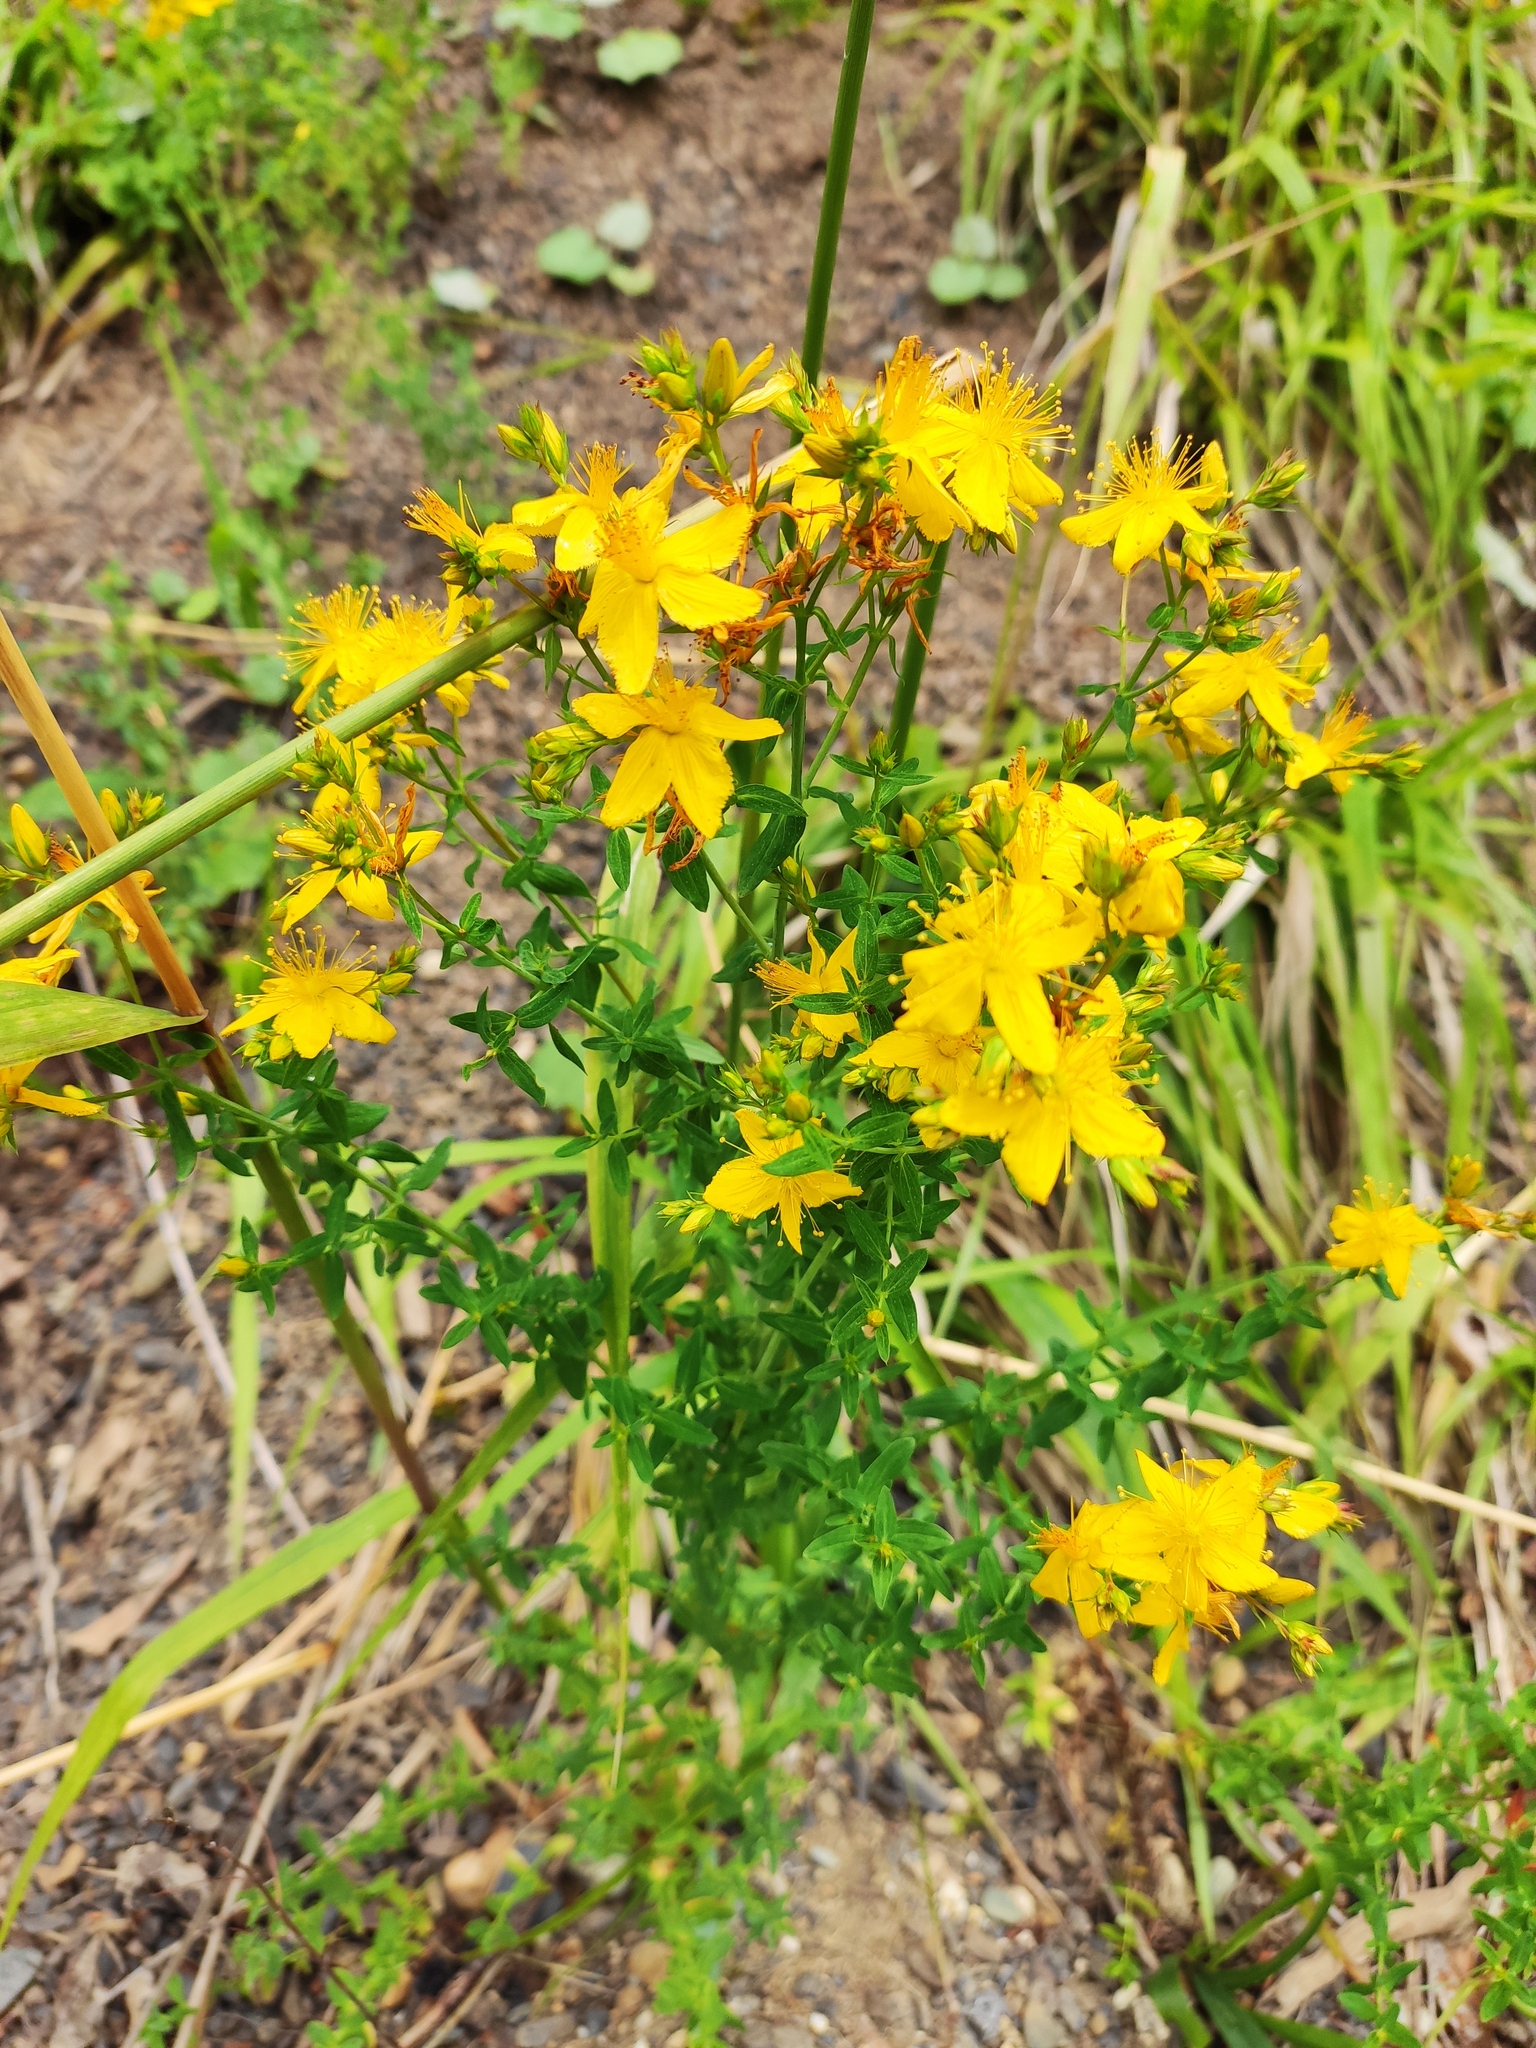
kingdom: Plantae
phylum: Tracheophyta
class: Magnoliopsida
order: Malpighiales
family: Hypericaceae
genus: Hypericum
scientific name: Hypericum perforatum
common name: Common st. johnswort
